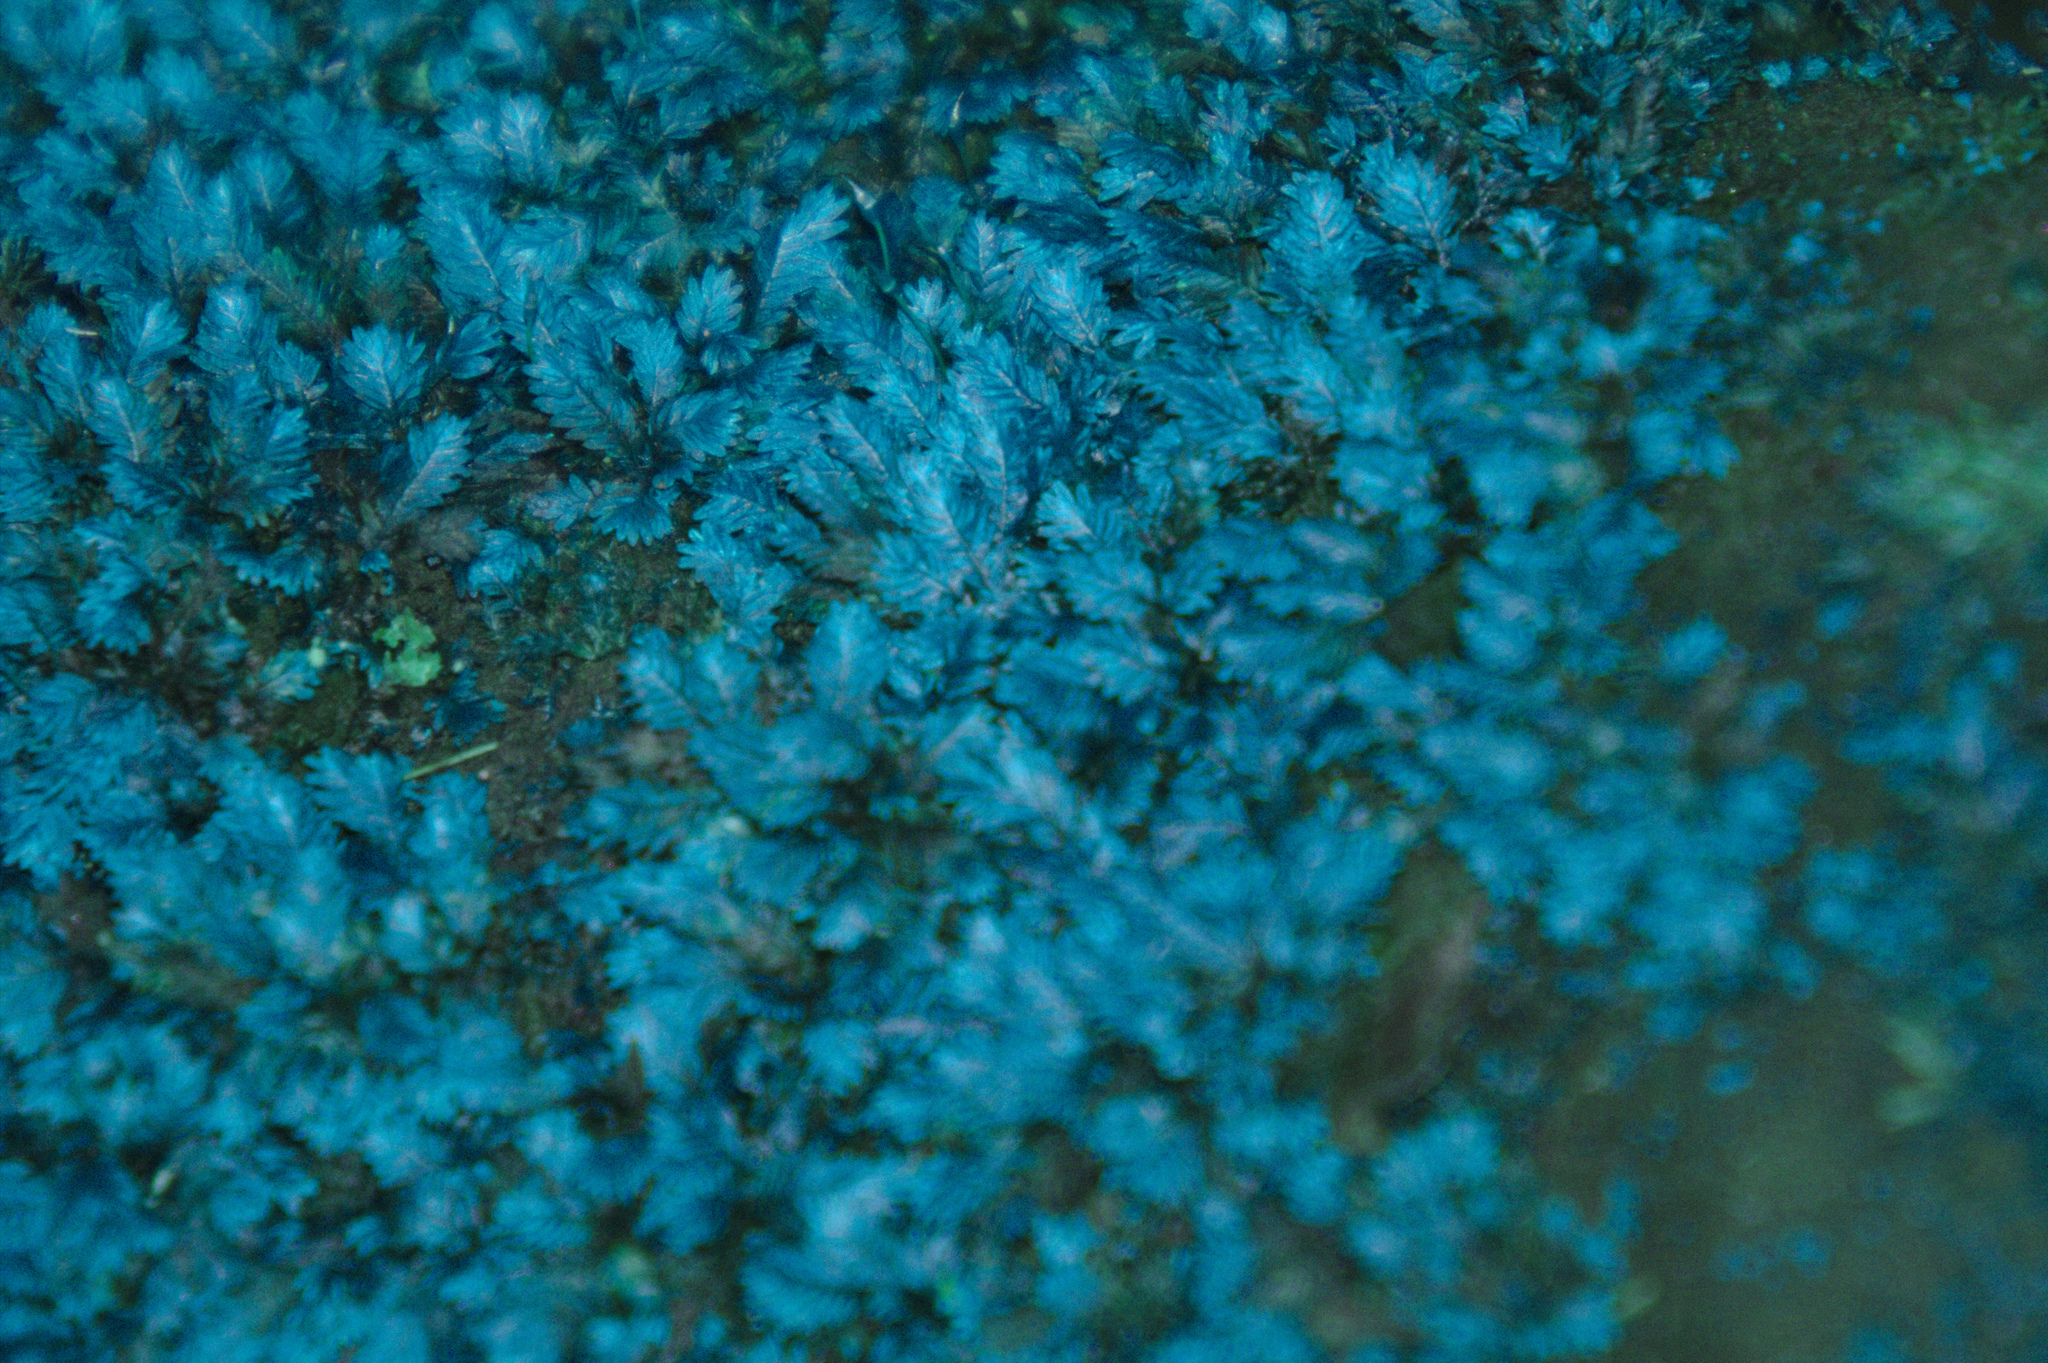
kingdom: Plantae
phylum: Bryophyta
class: Bryopsida
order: Dicranales
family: Fissidentaceae
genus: Fissidens
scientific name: Fissidens
